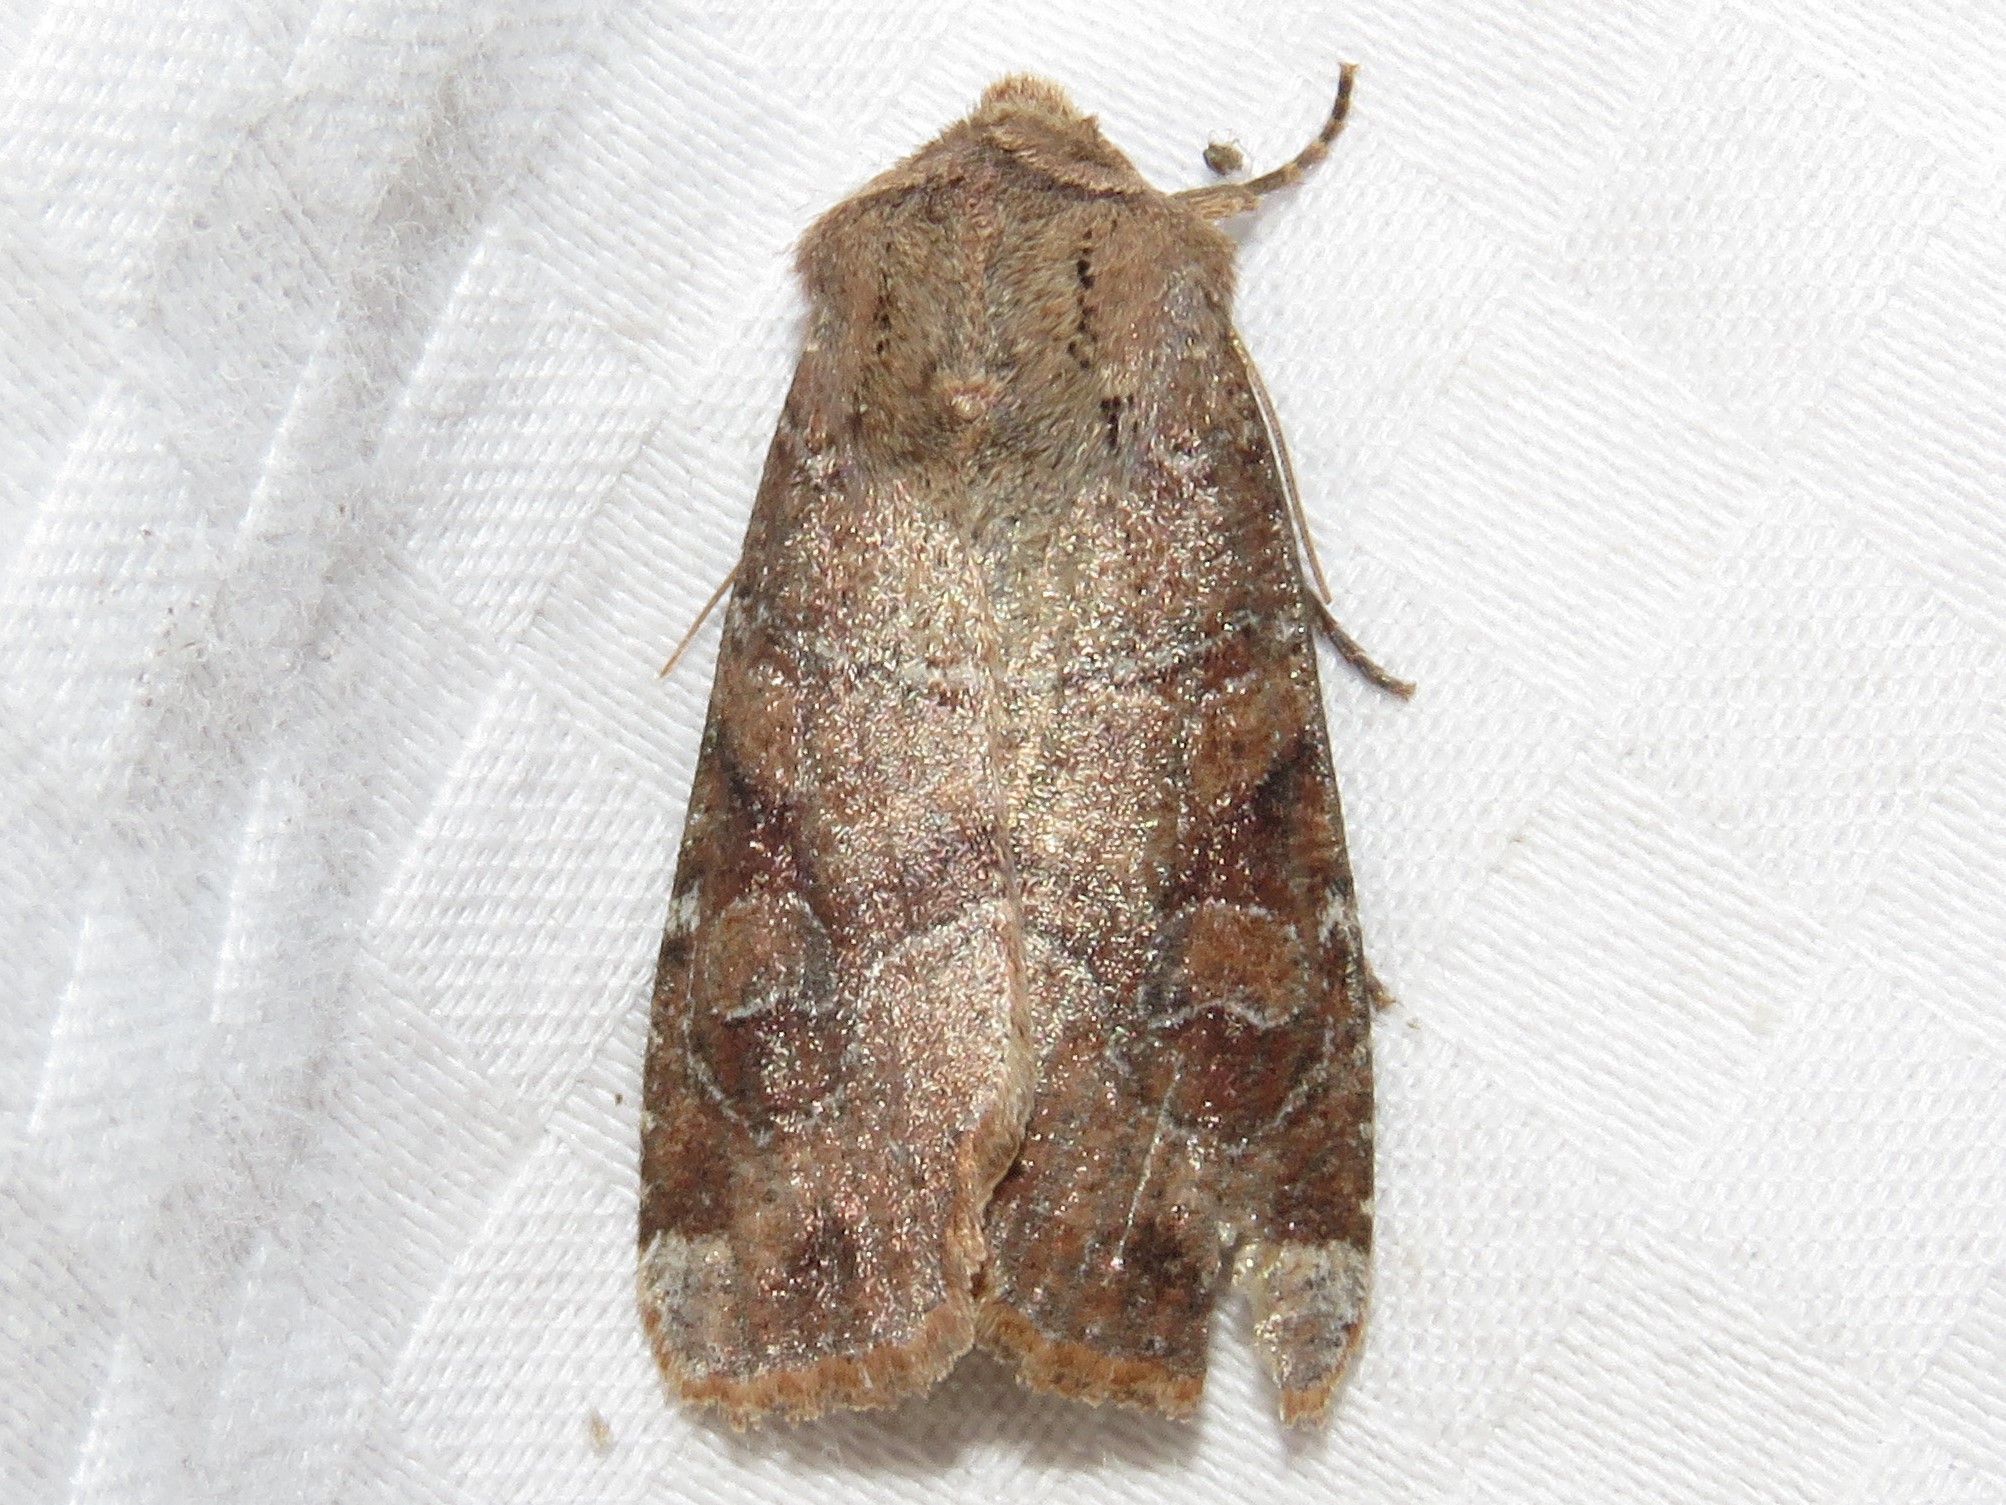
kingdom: Animalia
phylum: Arthropoda
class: Insecta
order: Lepidoptera
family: Noctuidae
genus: Crocigrapha
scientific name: Crocigrapha normani
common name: Norman's quaker
